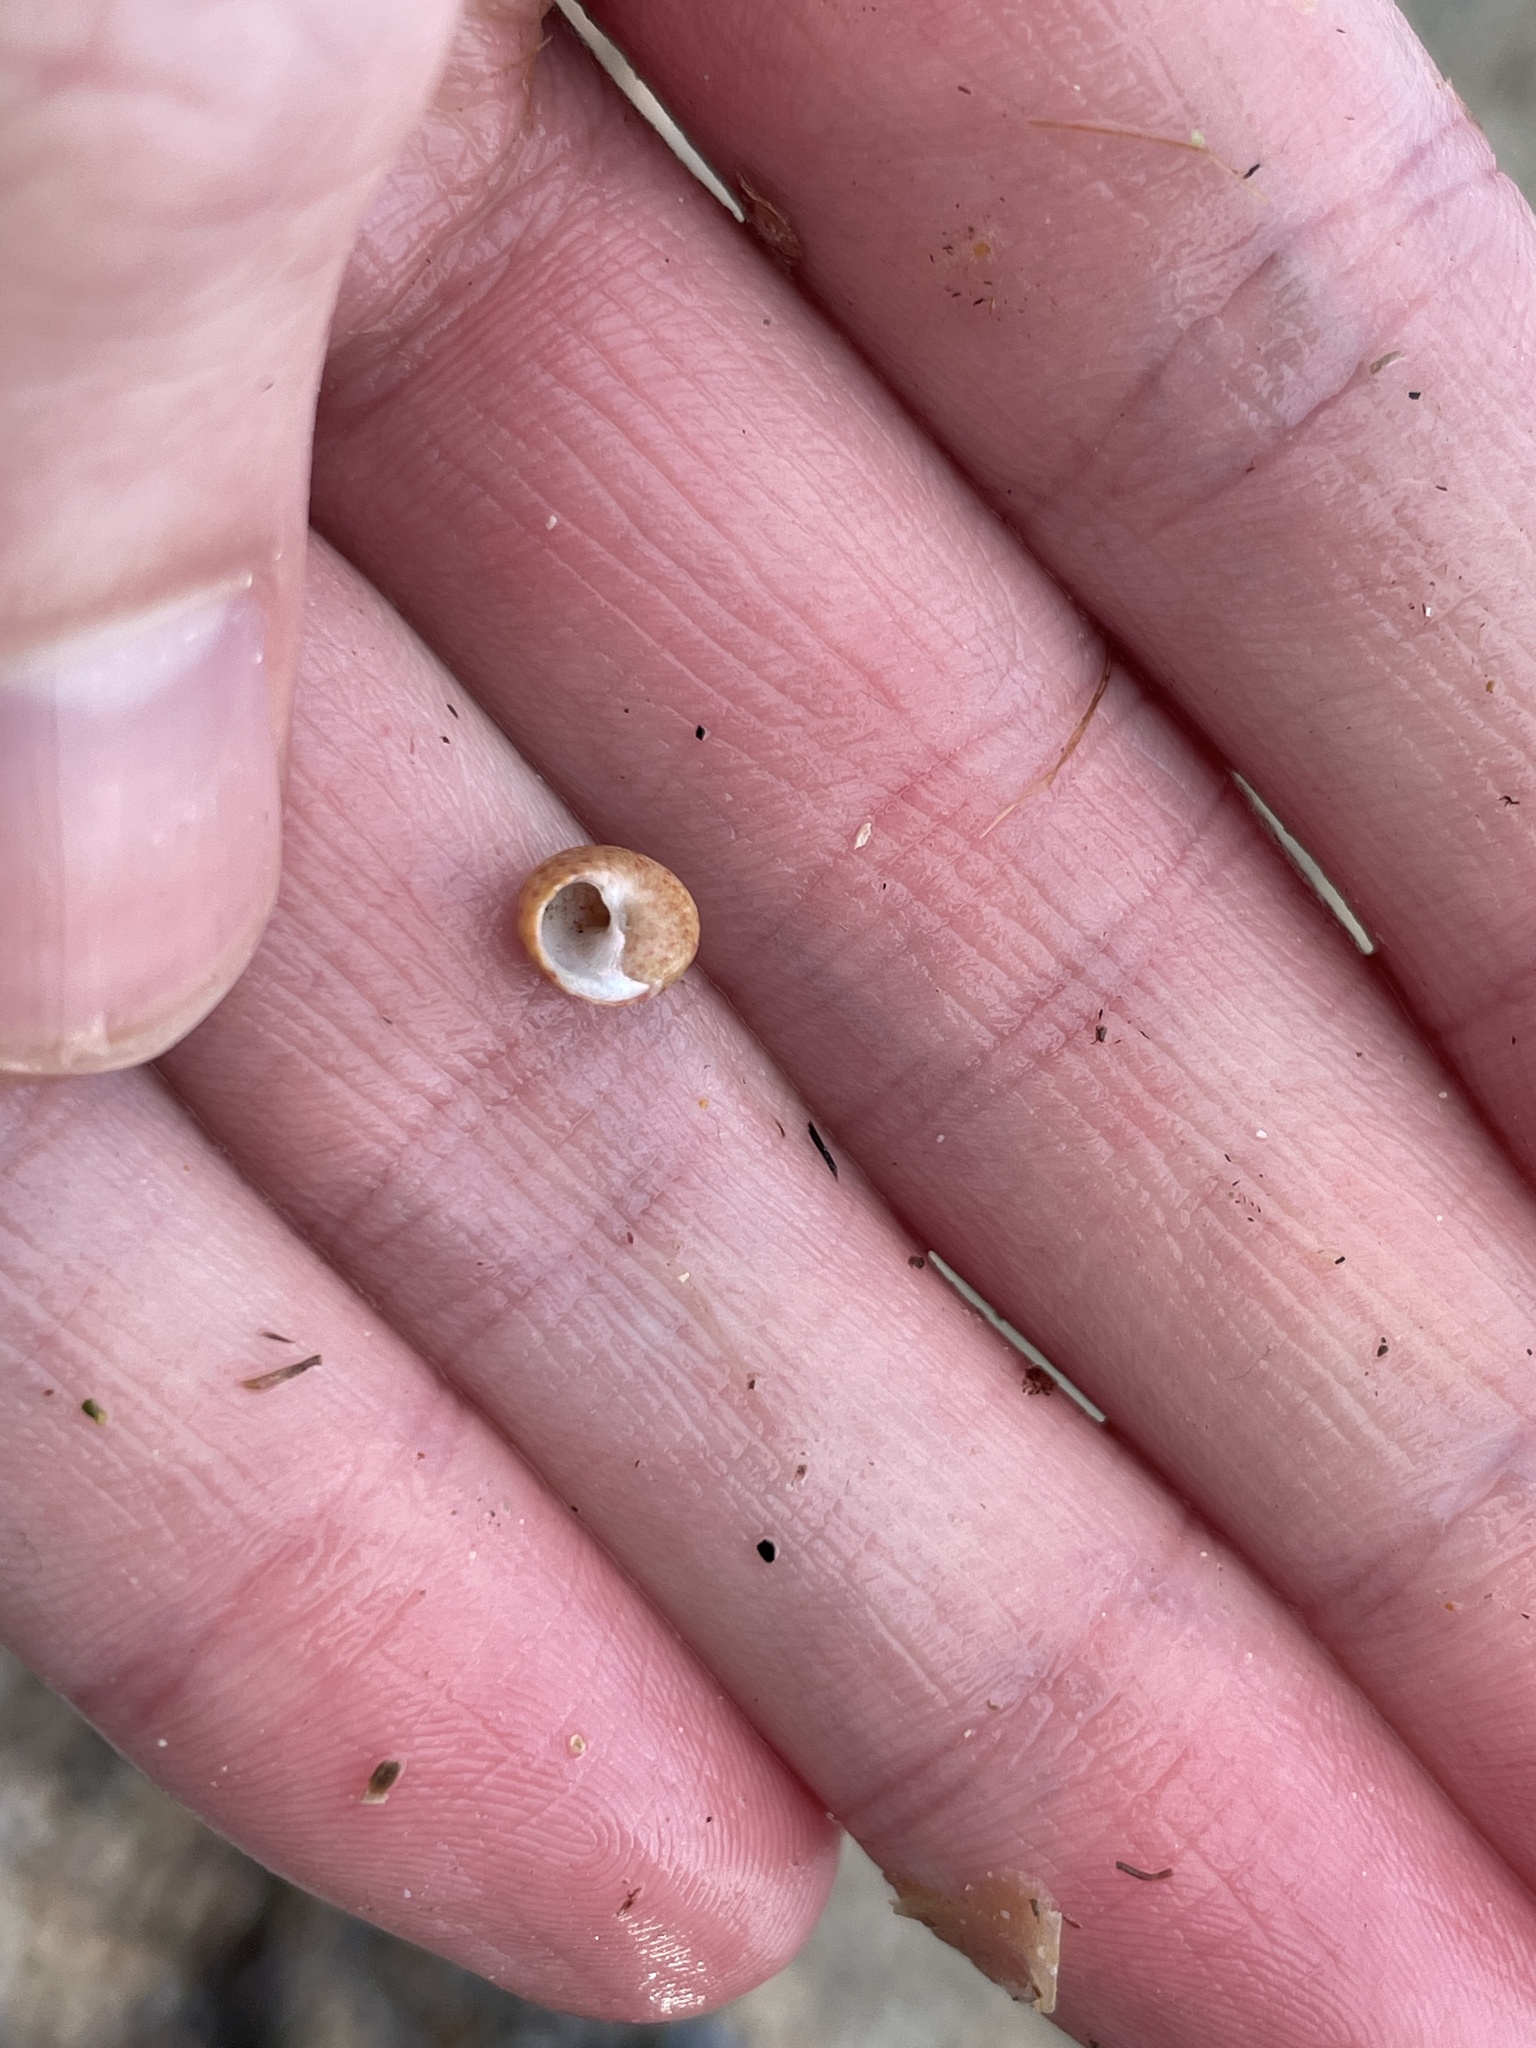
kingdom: Animalia
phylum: Mollusca
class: Gastropoda
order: Trochida
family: Trochidae
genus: Phorcus
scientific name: Phorcus mutabilis
